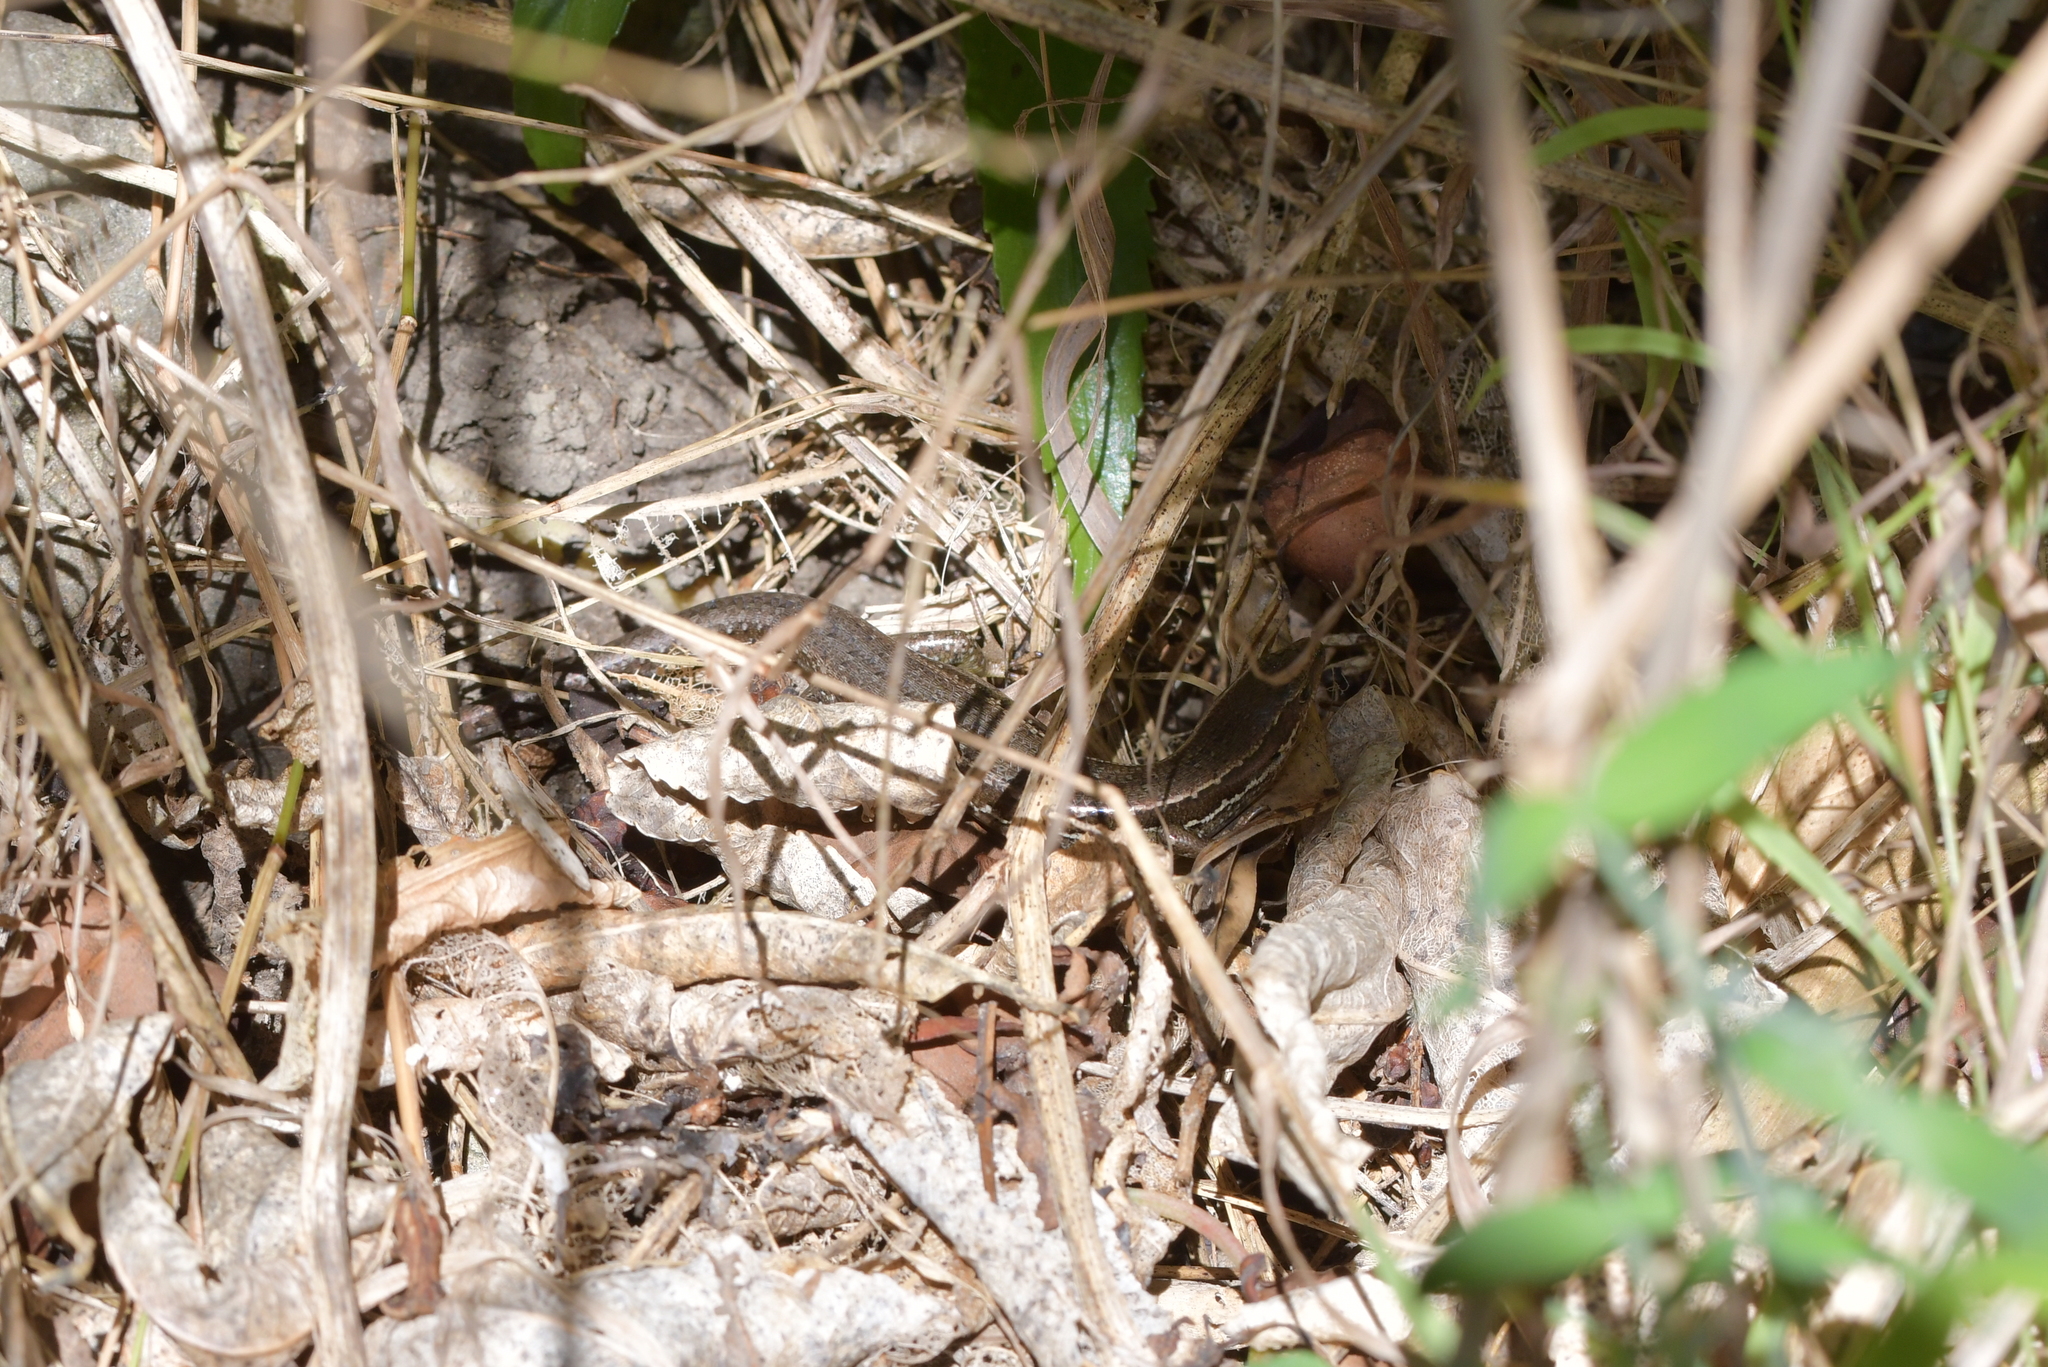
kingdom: Animalia
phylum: Chordata
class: Squamata
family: Scincidae
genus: Oligosoma
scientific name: Oligosoma polychroma
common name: Common new zealand skink
